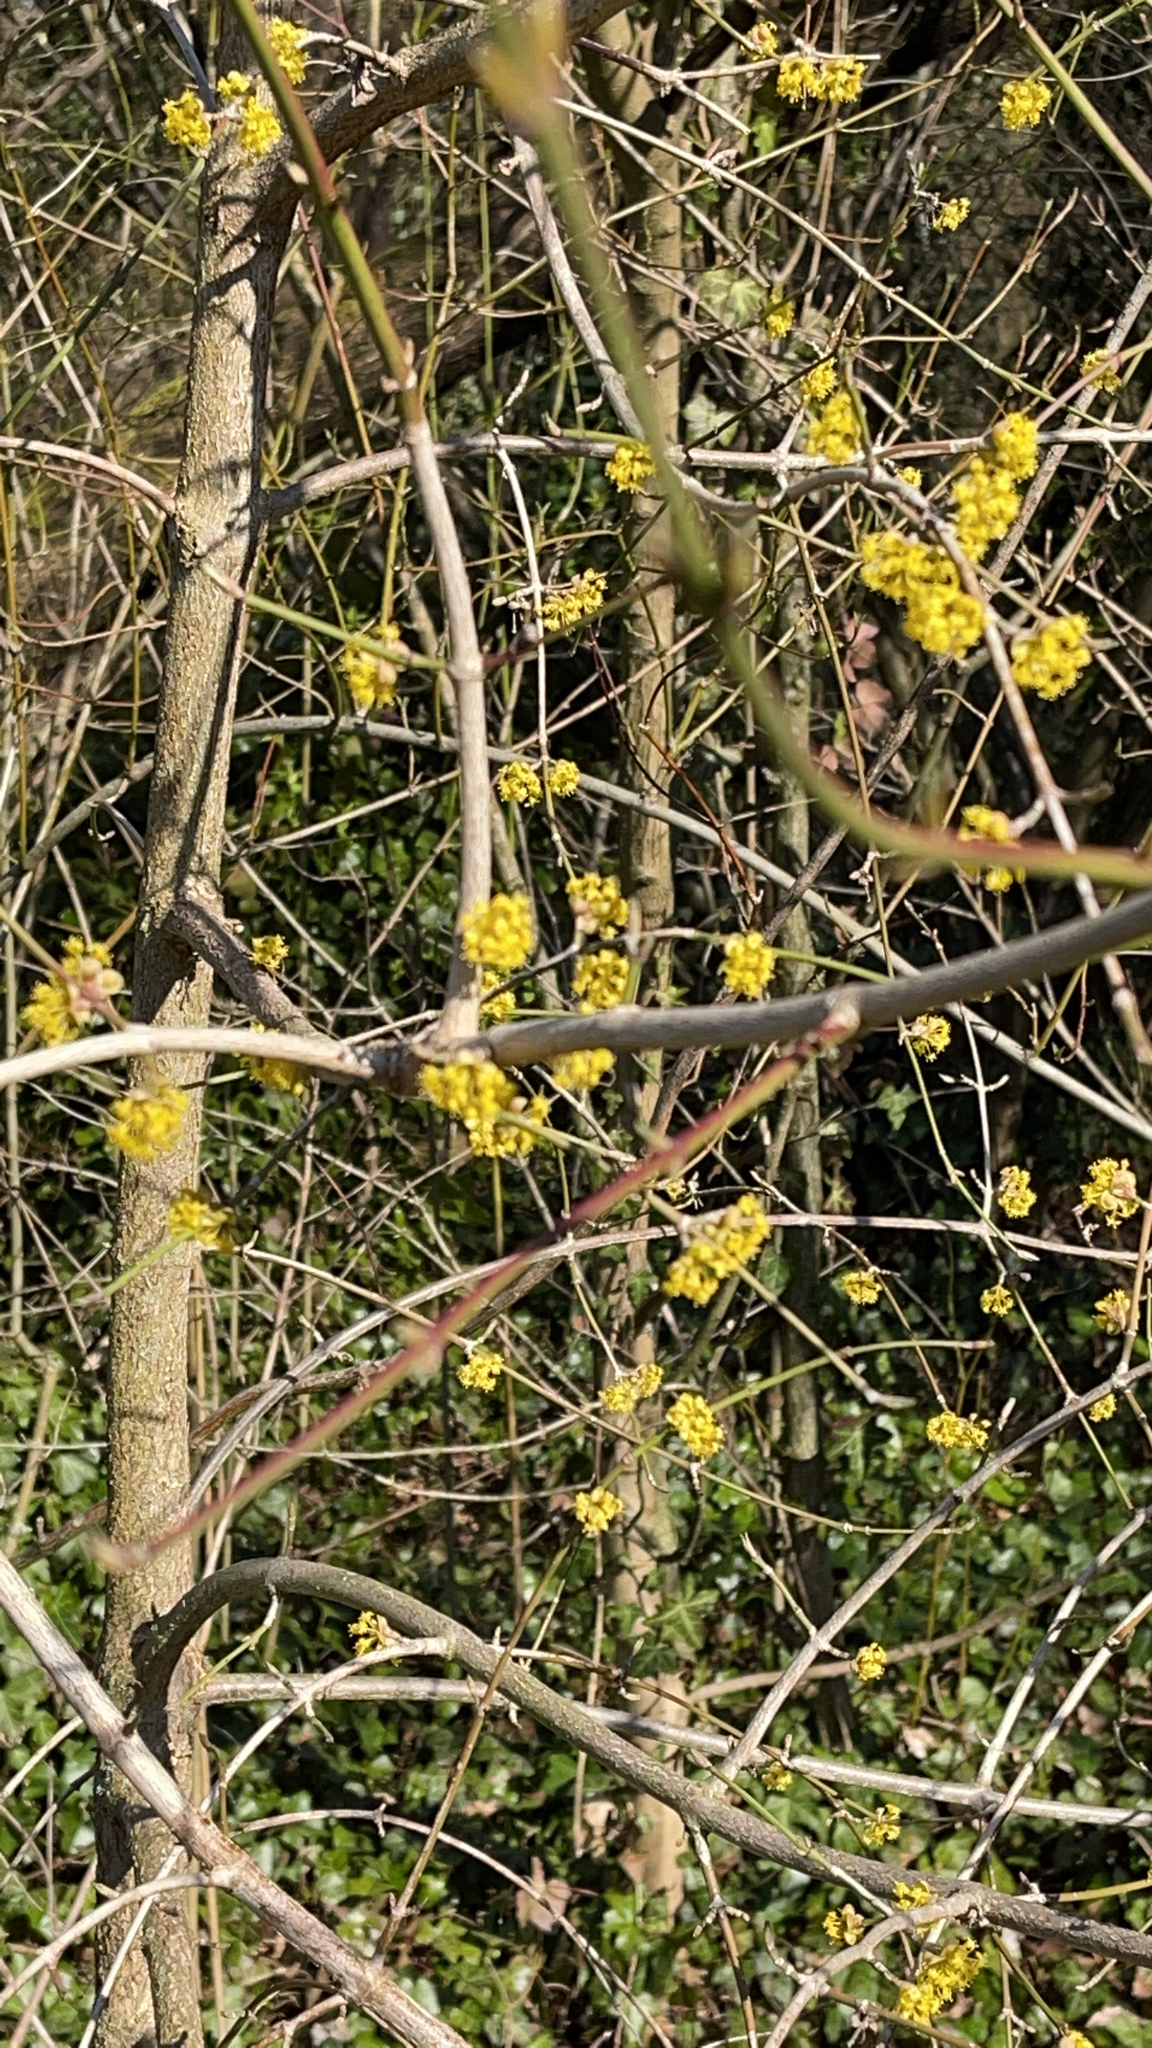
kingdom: Plantae
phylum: Tracheophyta
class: Magnoliopsida
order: Cornales
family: Cornaceae
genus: Cornus
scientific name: Cornus mas
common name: Cornelian-cherry
